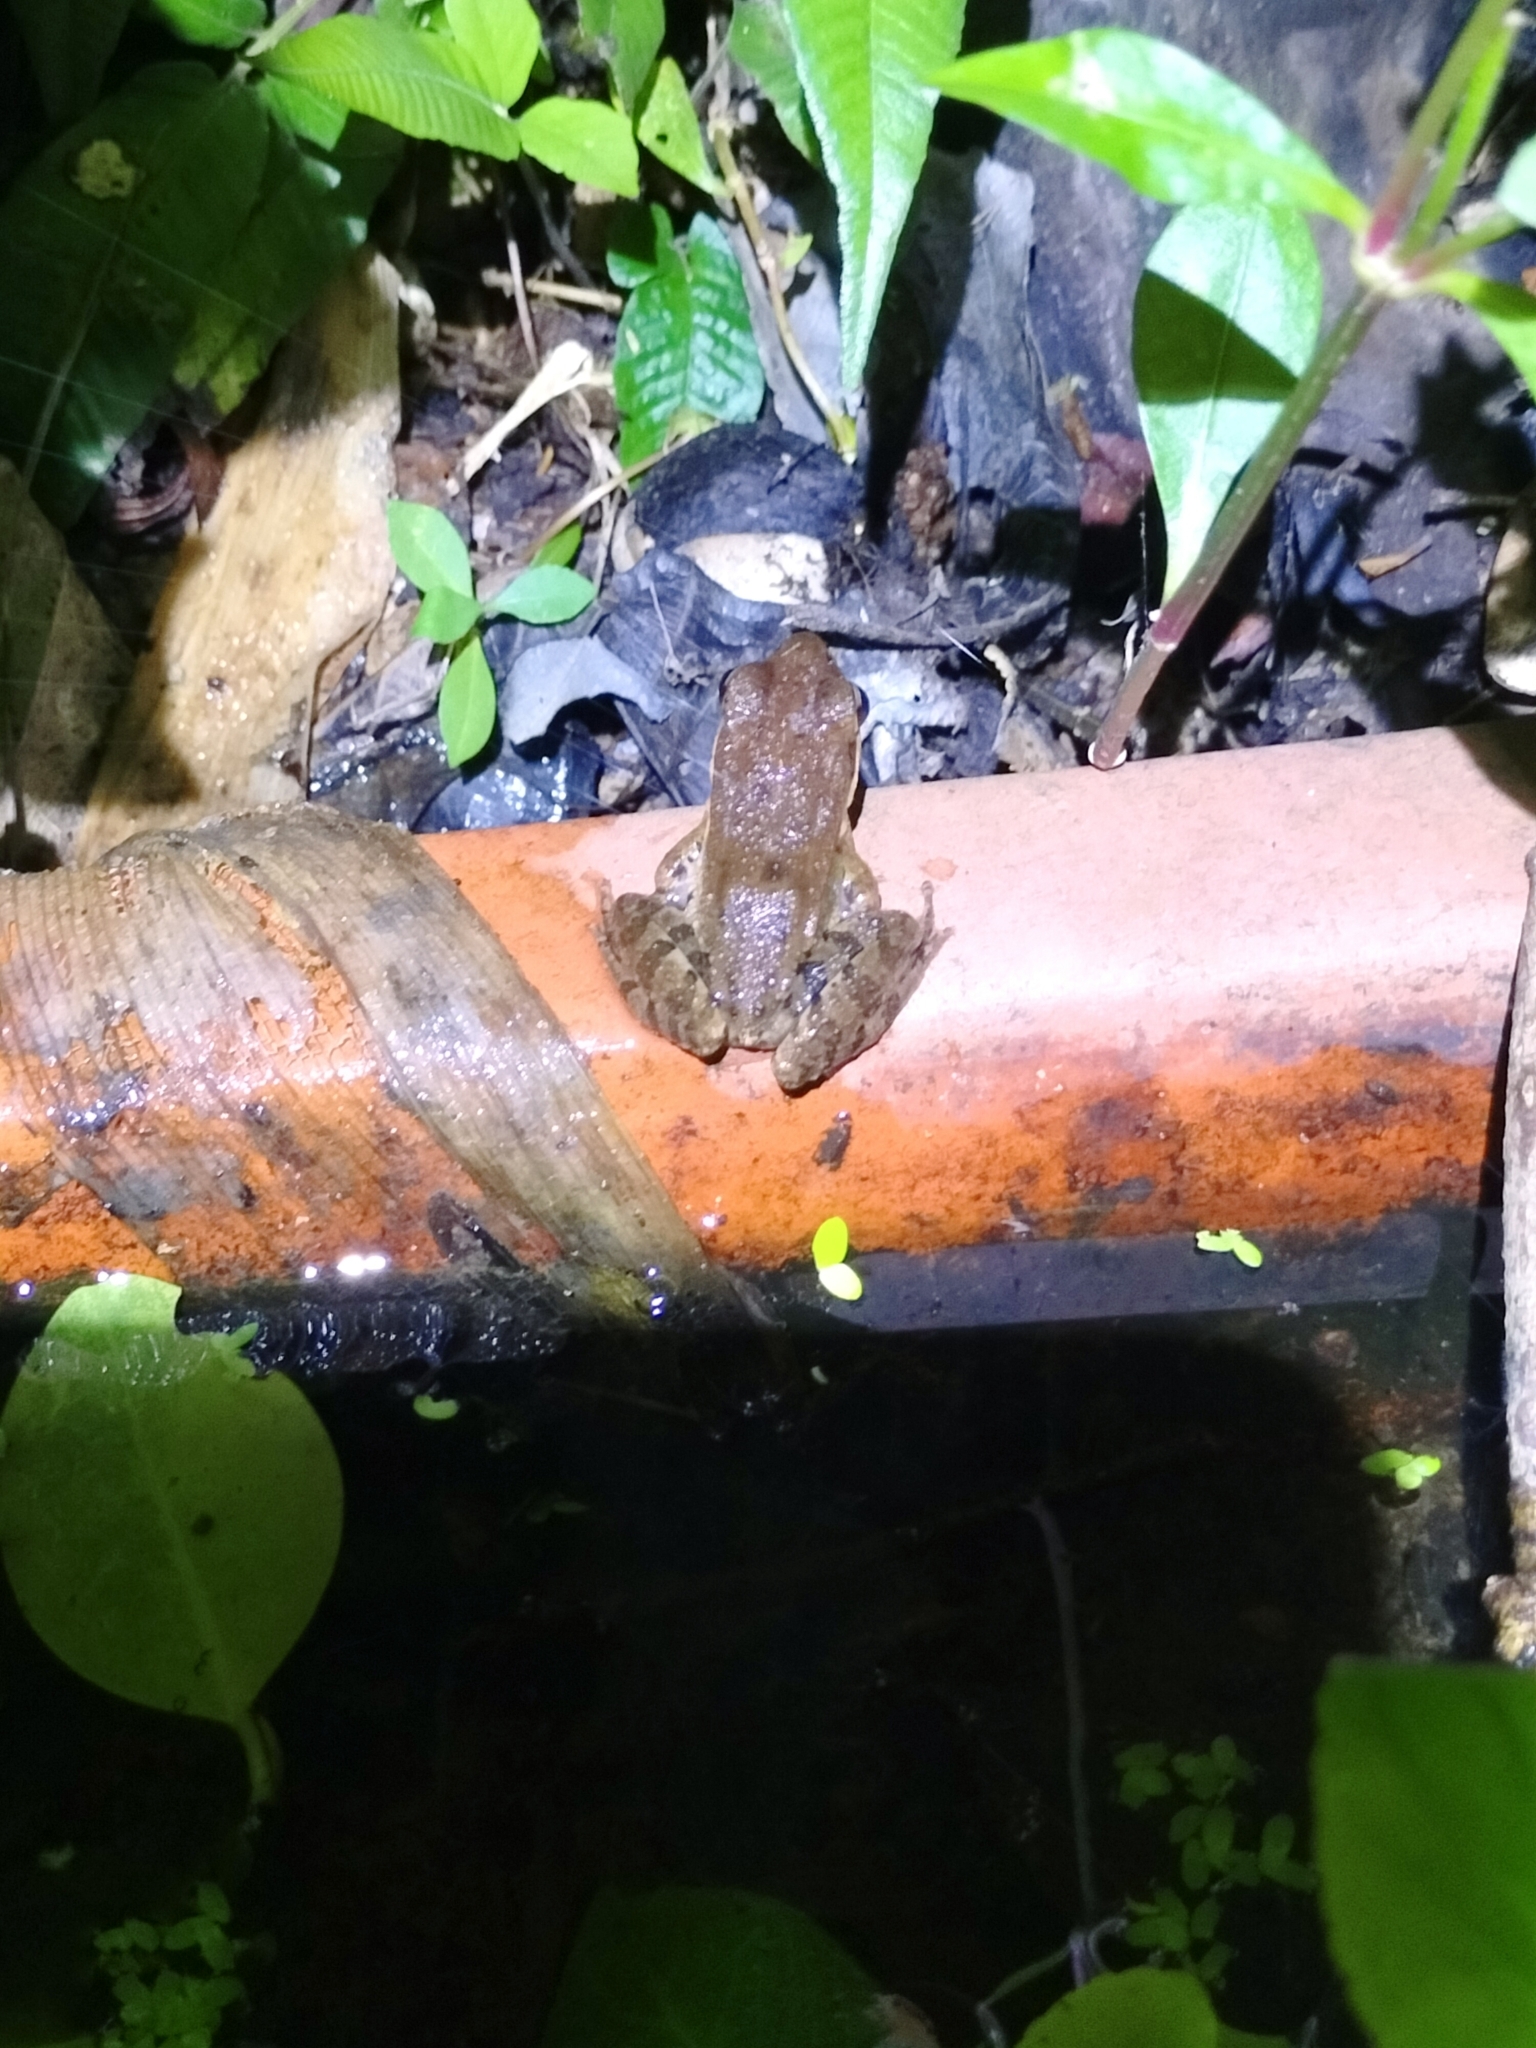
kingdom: Animalia
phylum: Chordata
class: Amphibia
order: Anura
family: Ranidae
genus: Hylarana
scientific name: Hylarana latouchii
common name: Broad-folded frog
